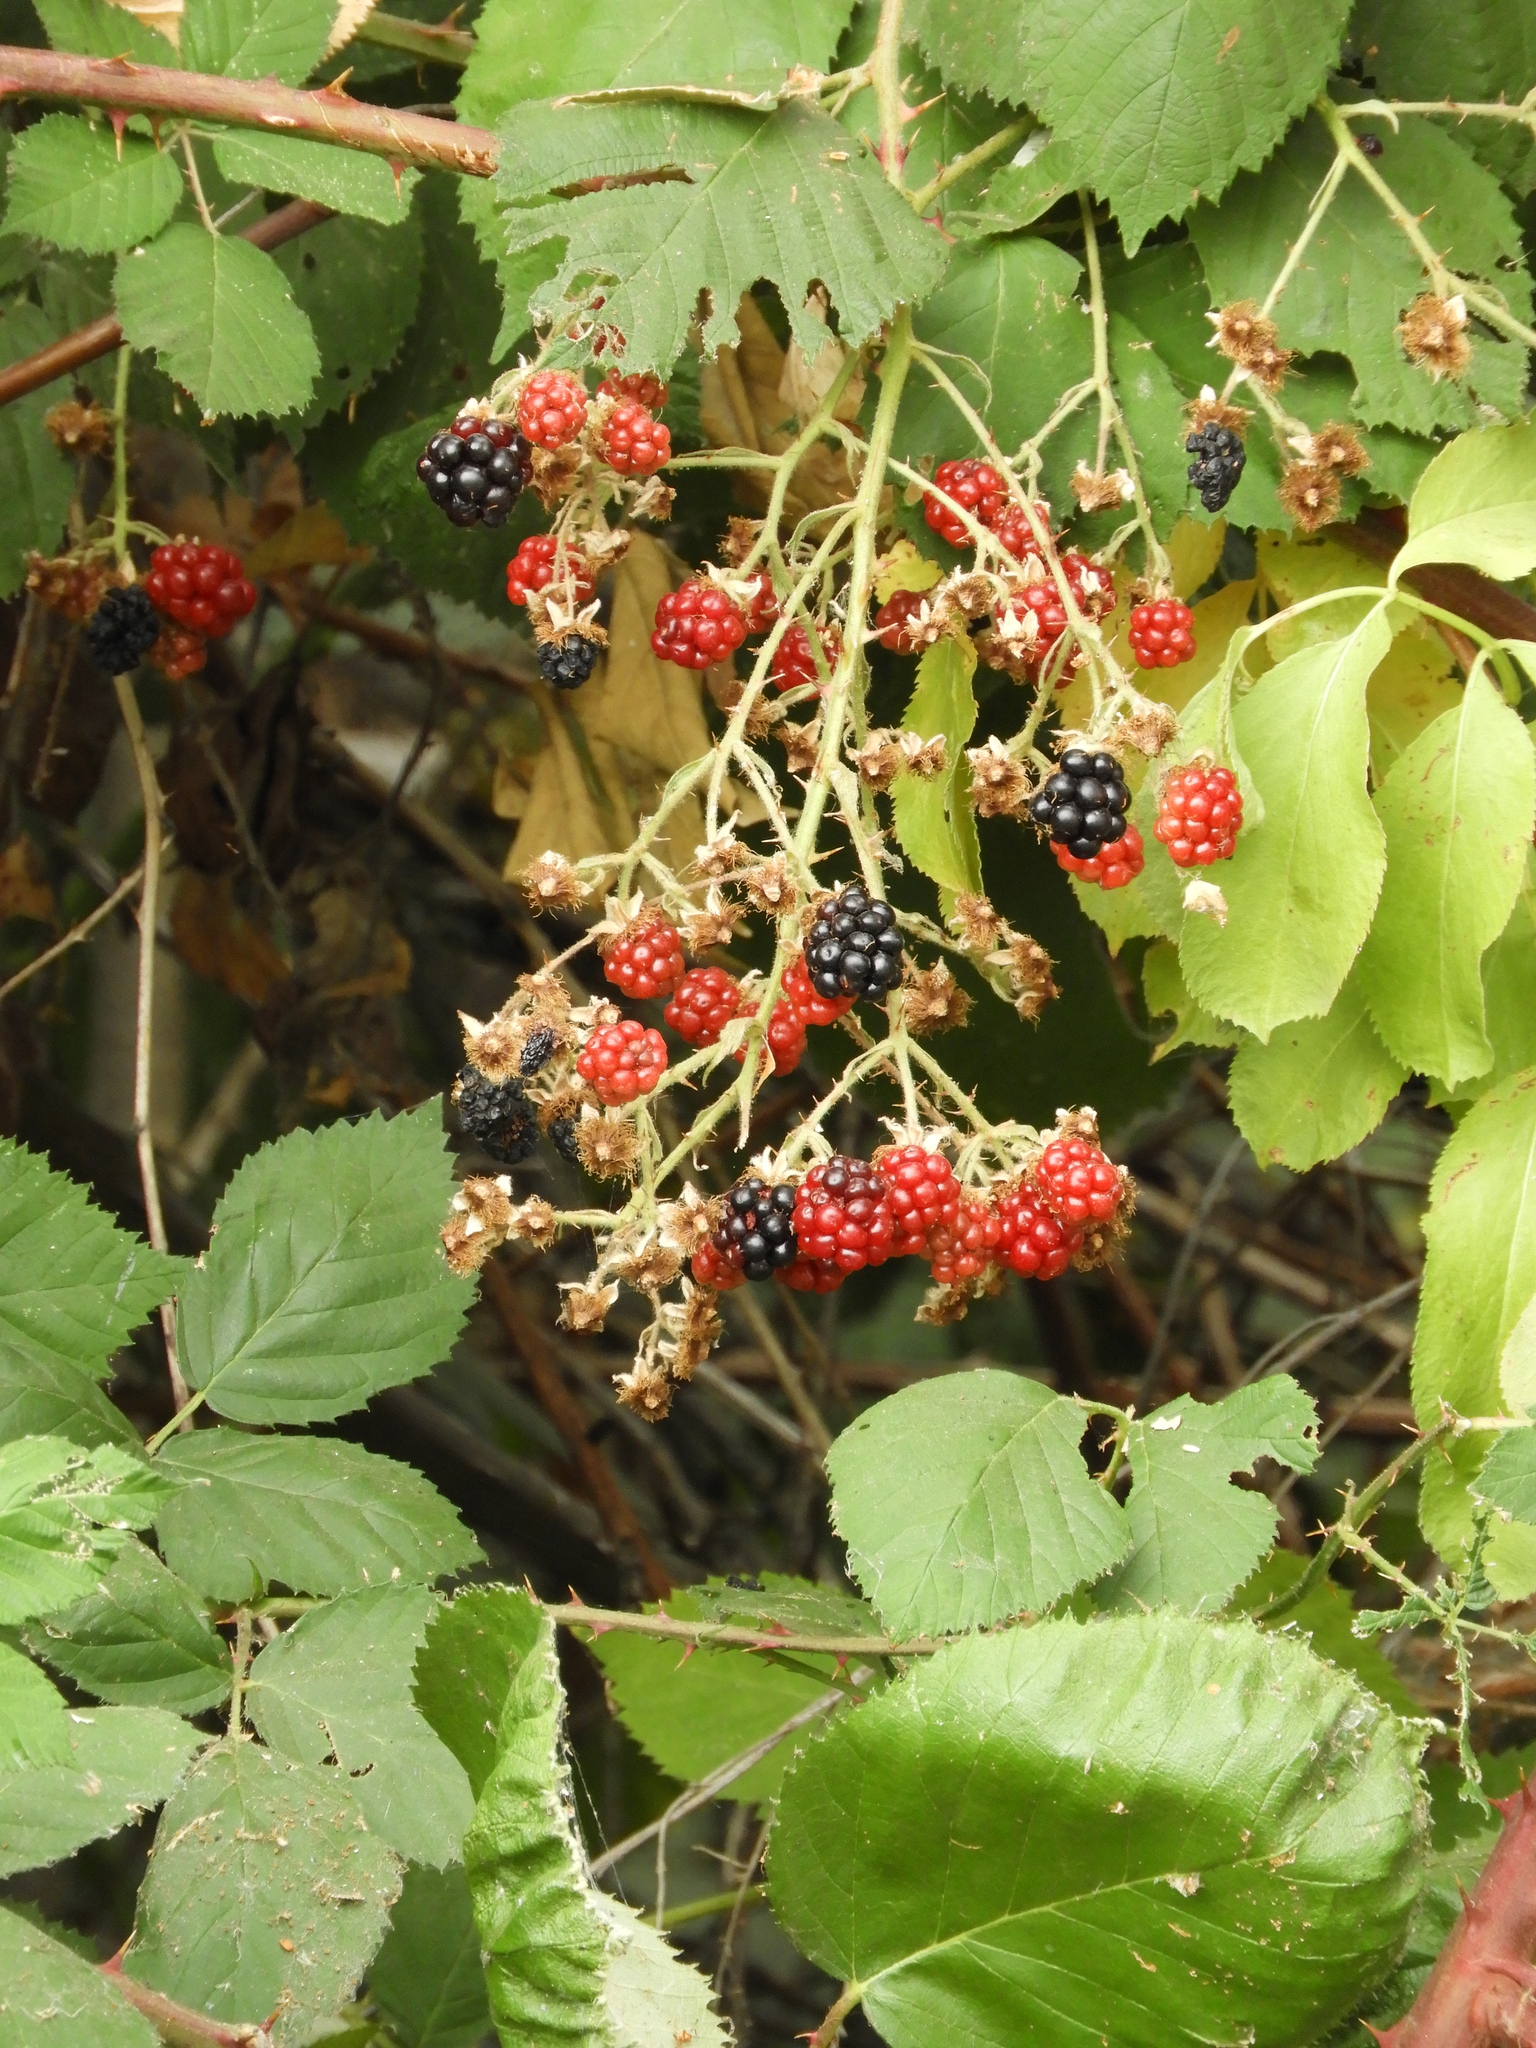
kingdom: Plantae
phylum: Tracheophyta
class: Magnoliopsida
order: Rosales
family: Rosaceae
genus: Rubus
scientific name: Rubus armeniacus
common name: Himalayan blackberry
